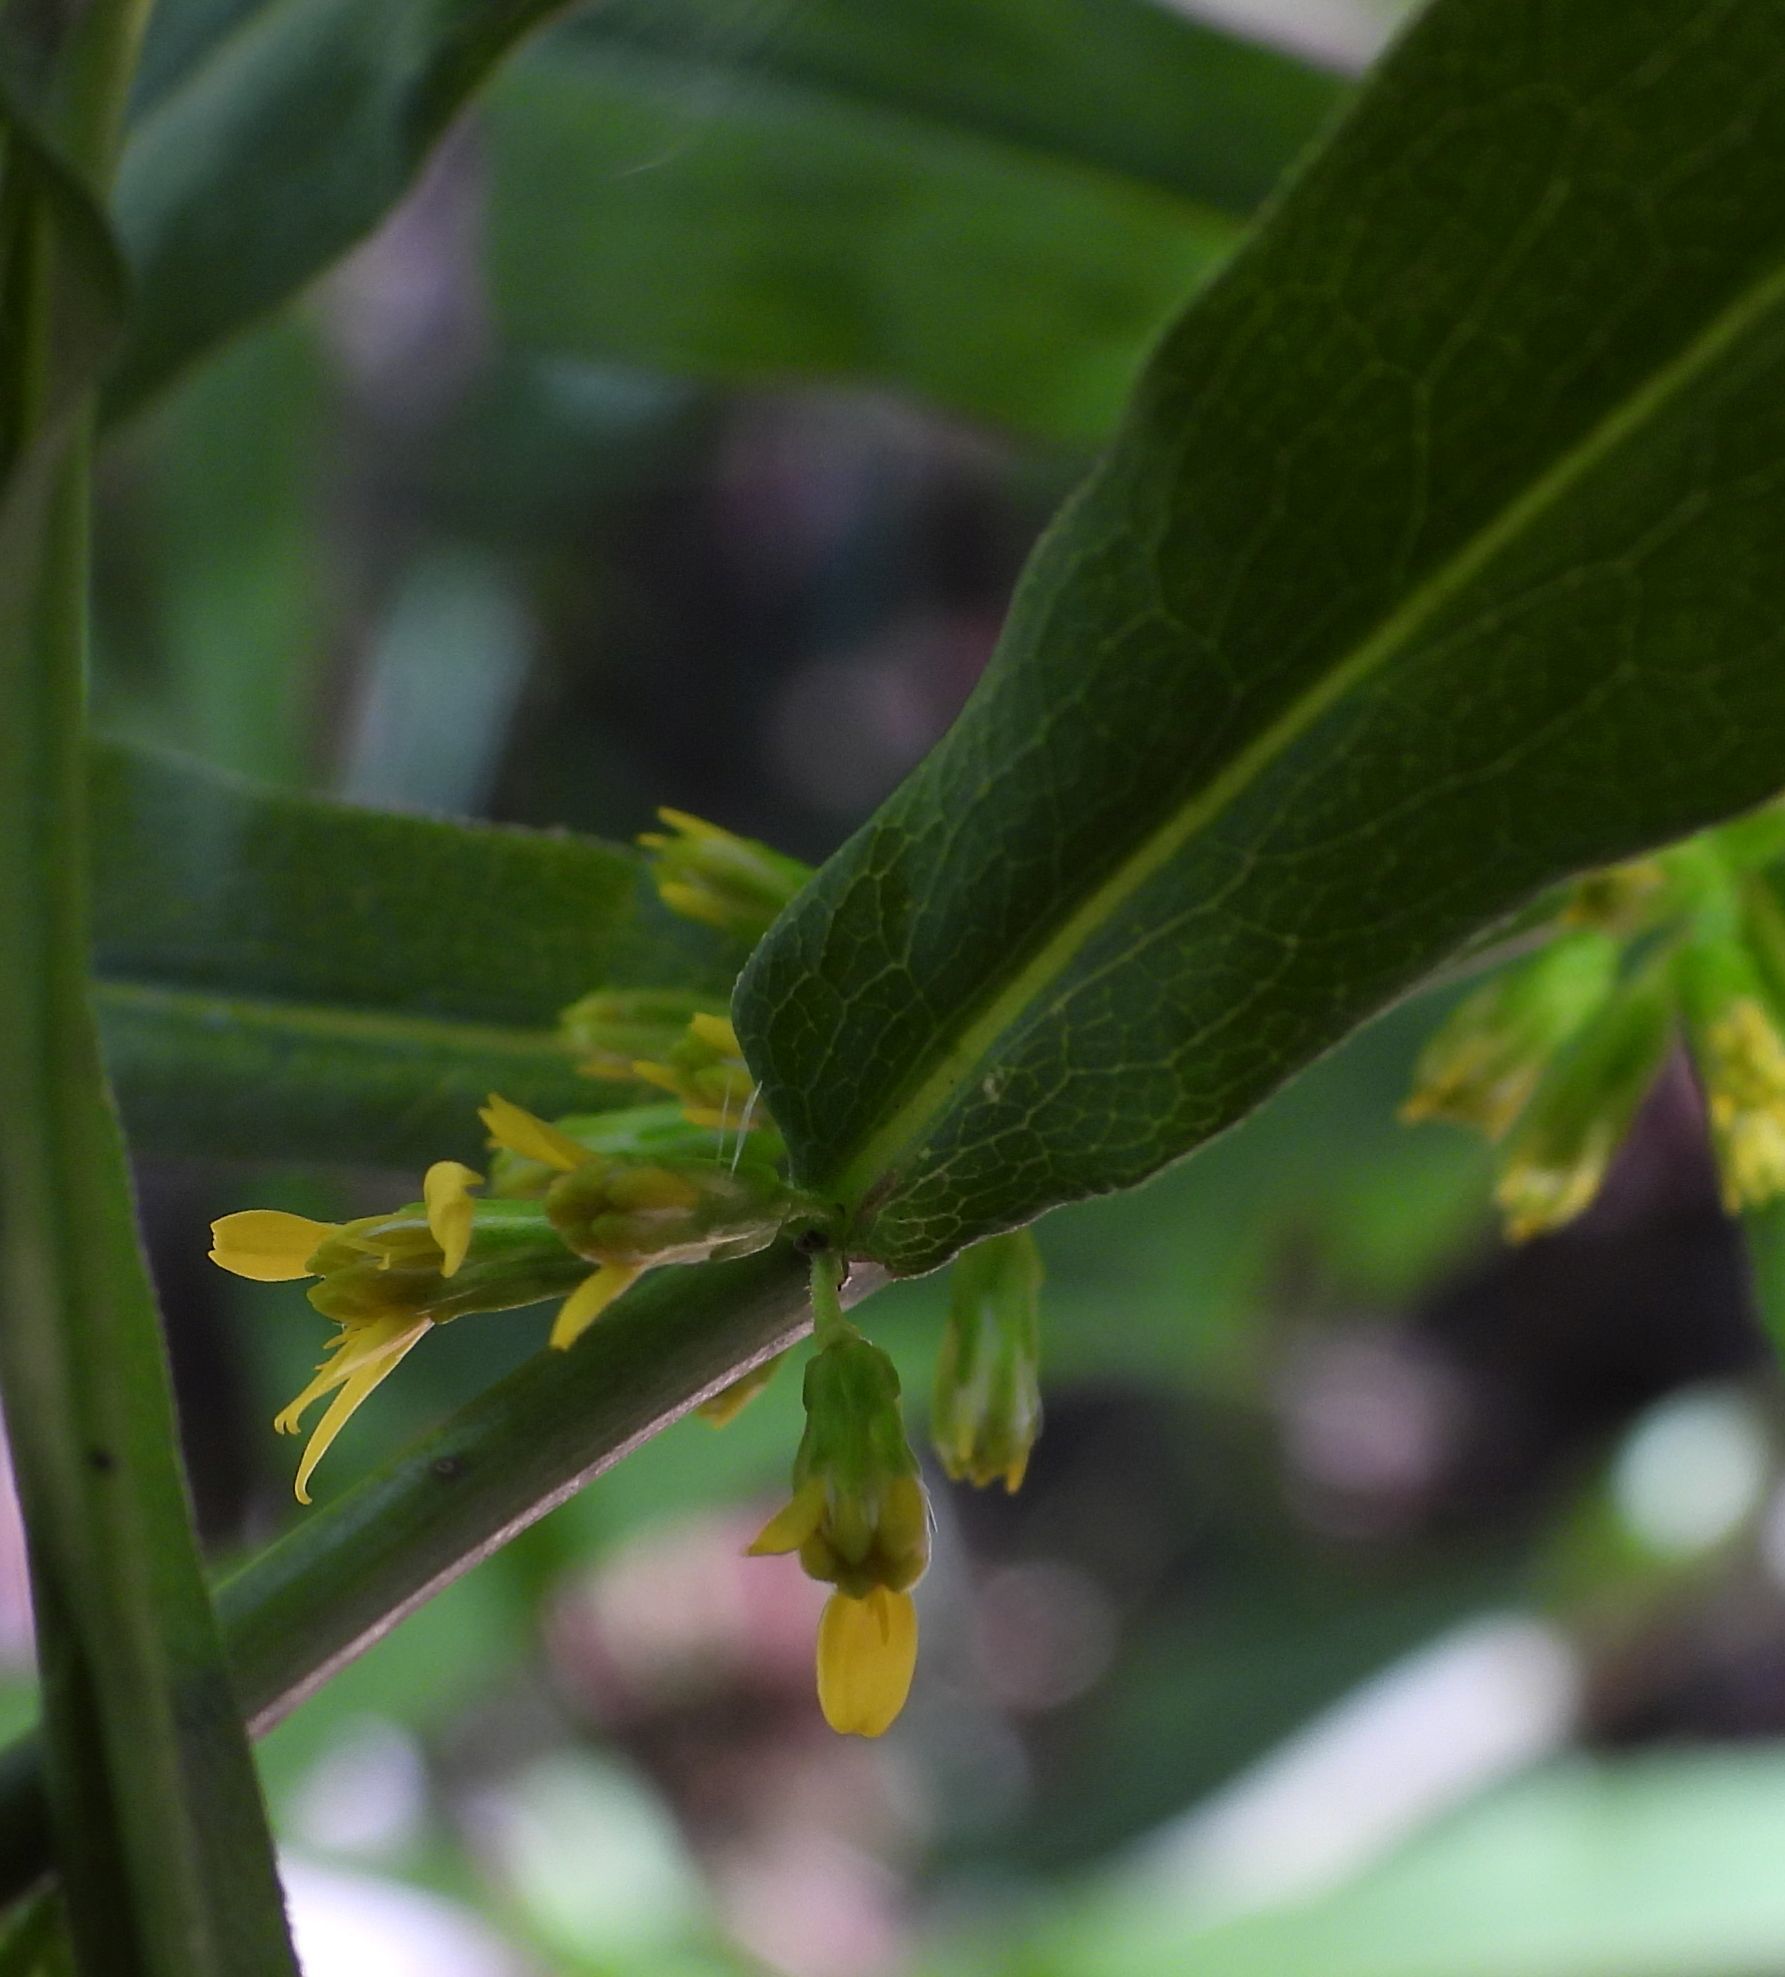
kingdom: Plantae
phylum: Tracheophyta
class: Magnoliopsida
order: Asterales
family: Asteraceae
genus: Solidago
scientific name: Solidago caesia
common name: Woodland goldenrod
